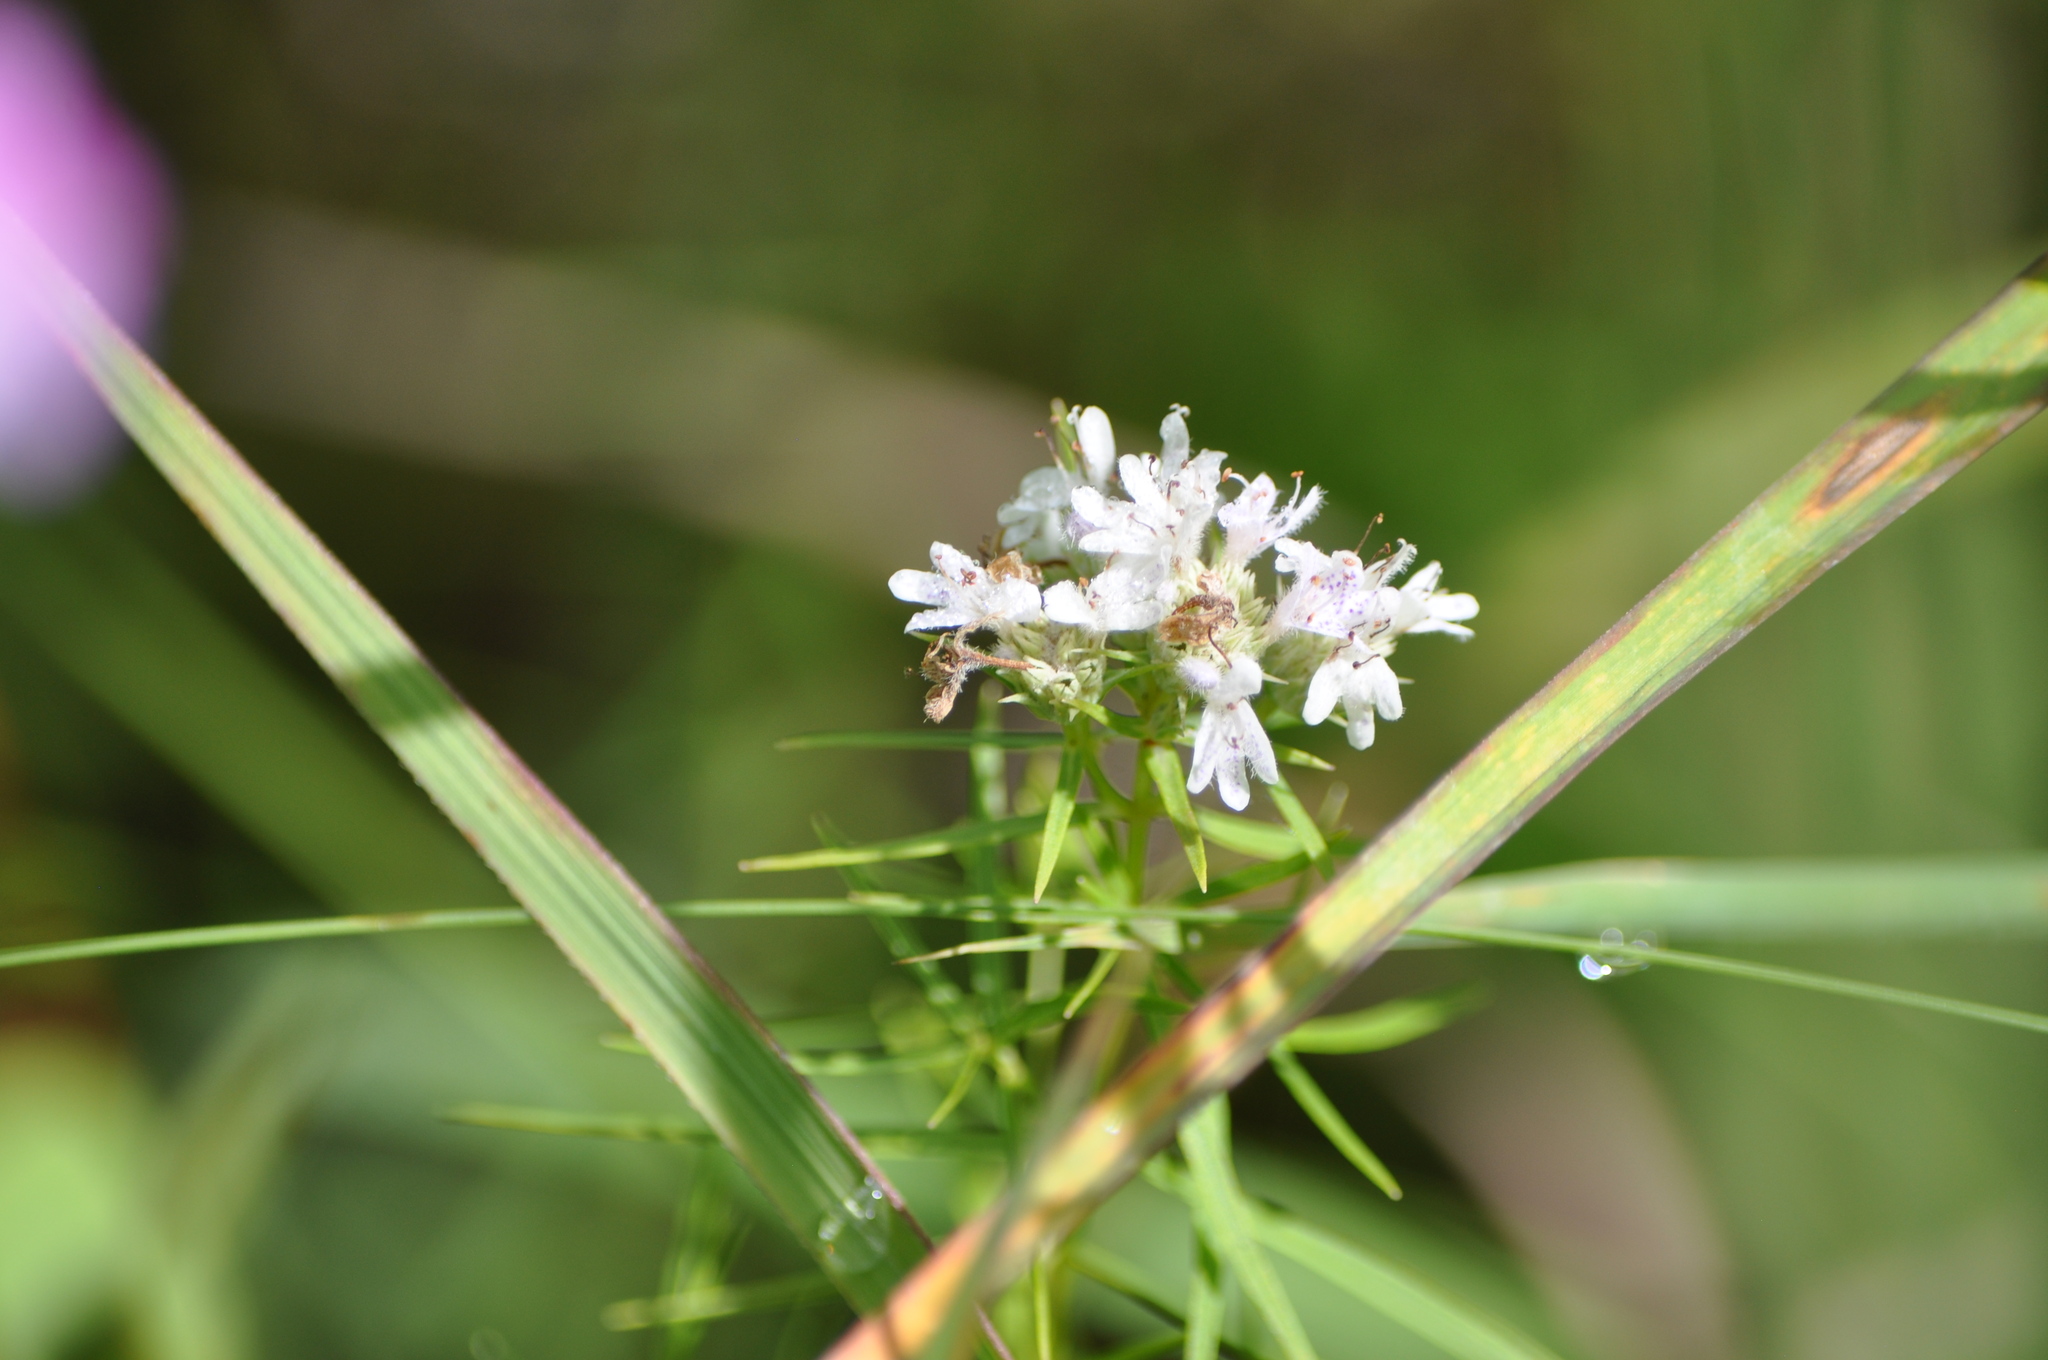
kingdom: Plantae
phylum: Tracheophyta
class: Magnoliopsida
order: Lamiales
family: Lamiaceae
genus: Pycnanthemum
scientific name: Pycnanthemum tenuifolium
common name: Narrow-leaf mountain-mint
